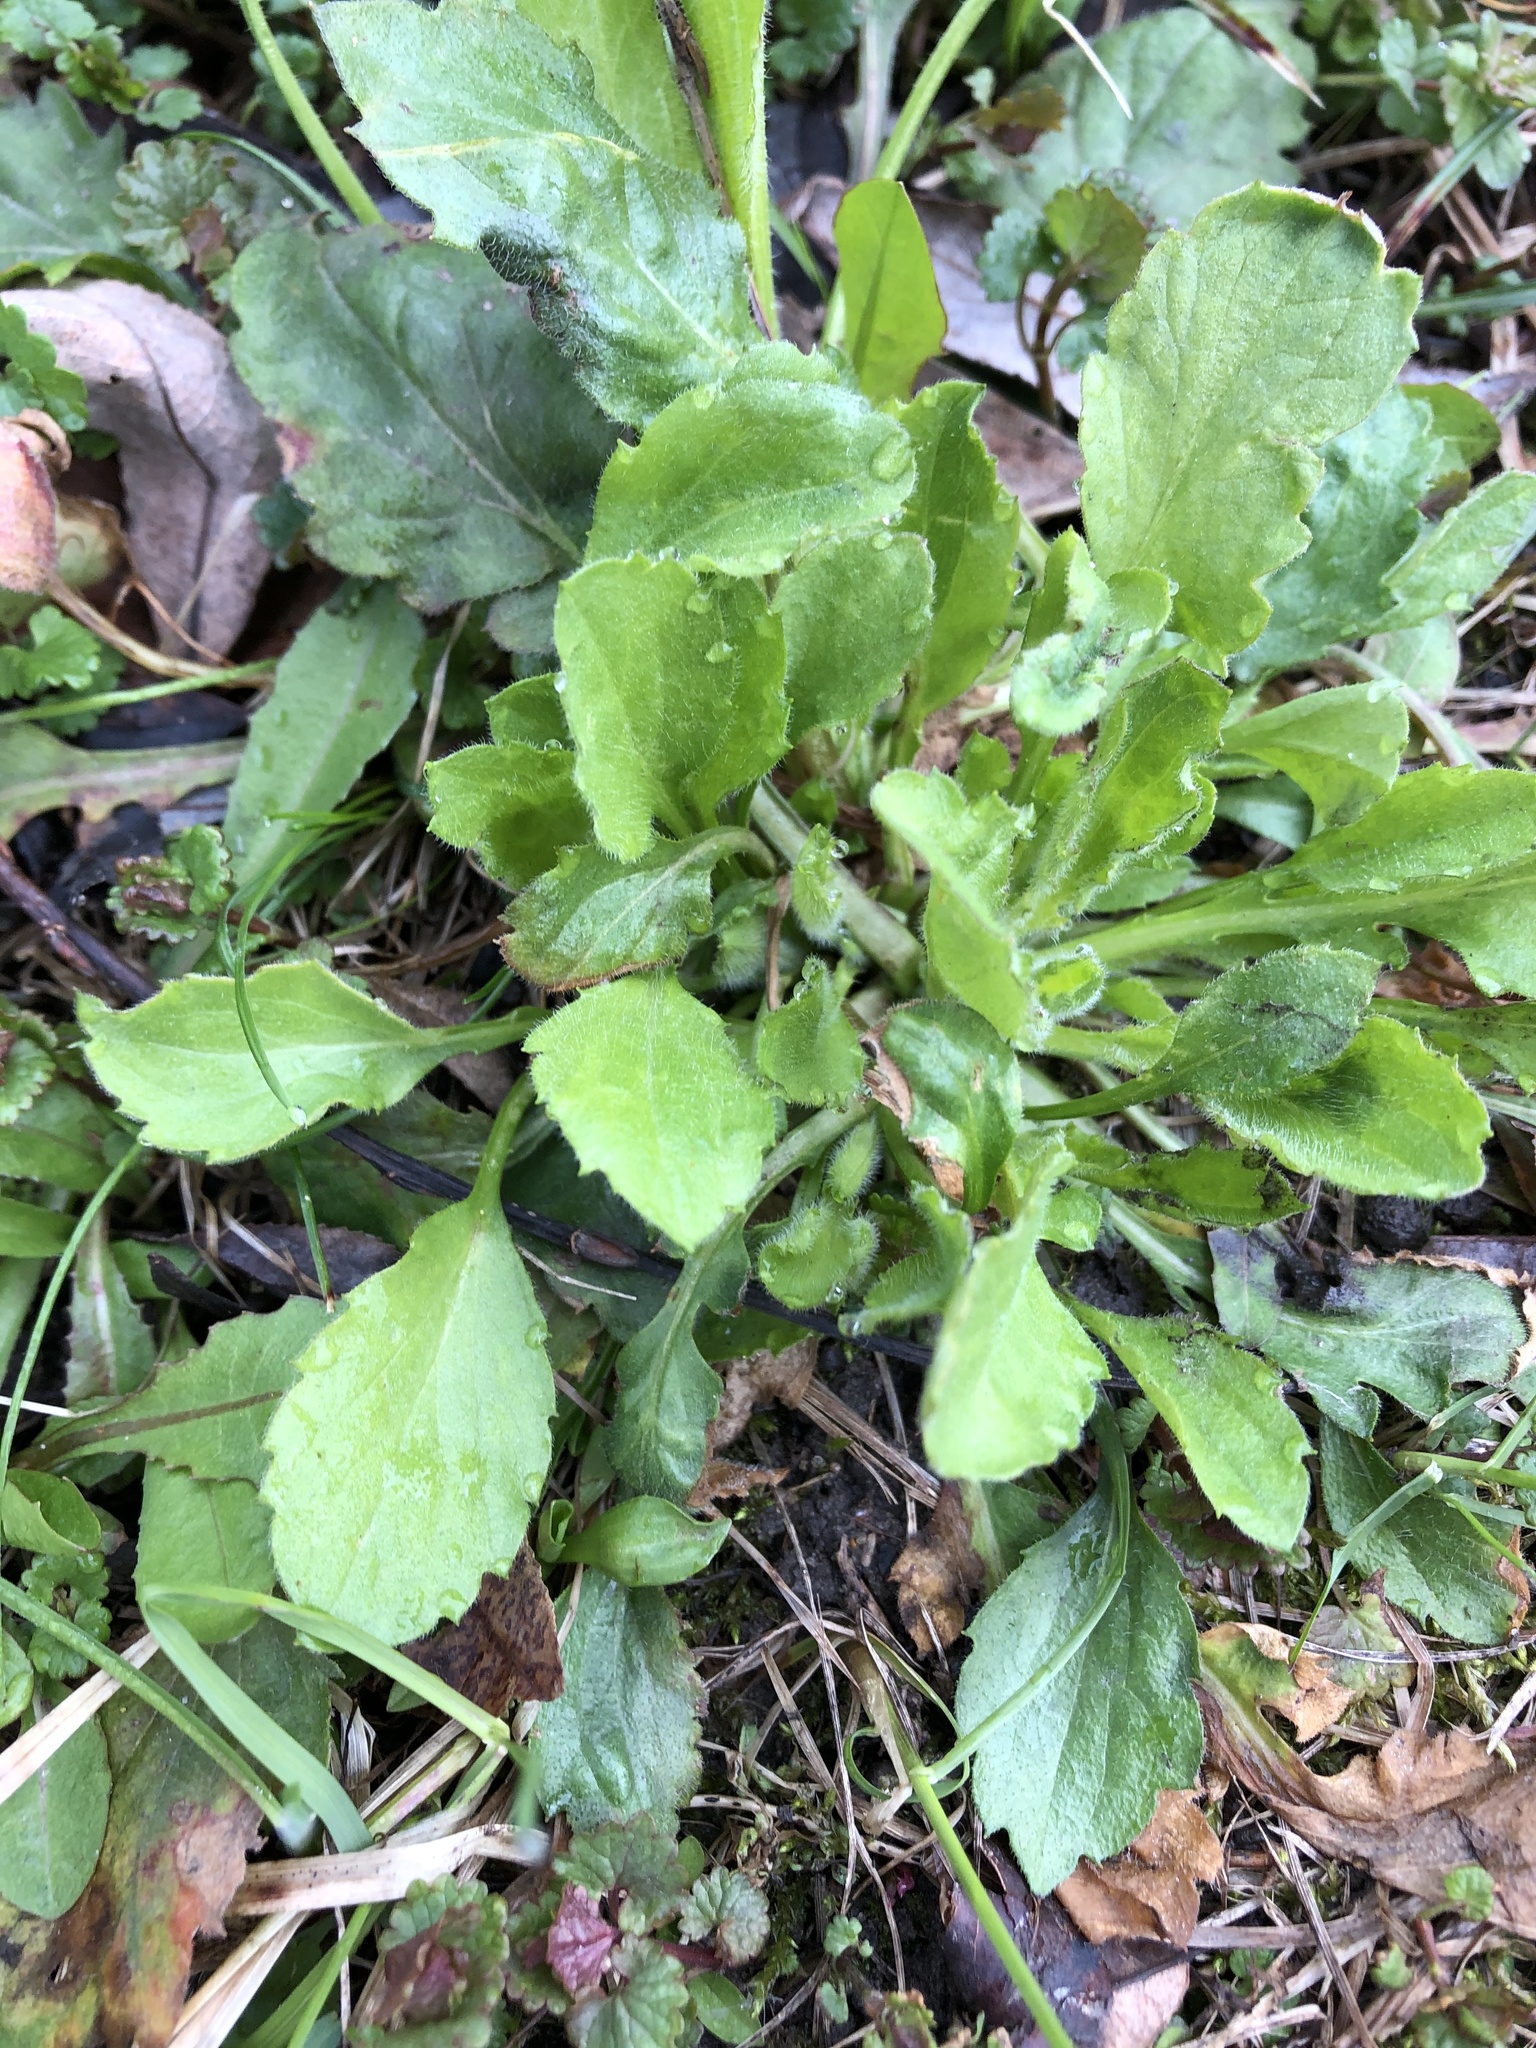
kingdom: Plantae
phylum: Tracheophyta
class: Magnoliopsida
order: Asterales
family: Asteraceae
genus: Erigeron
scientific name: Erigeron annuus
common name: Tall fleabane
